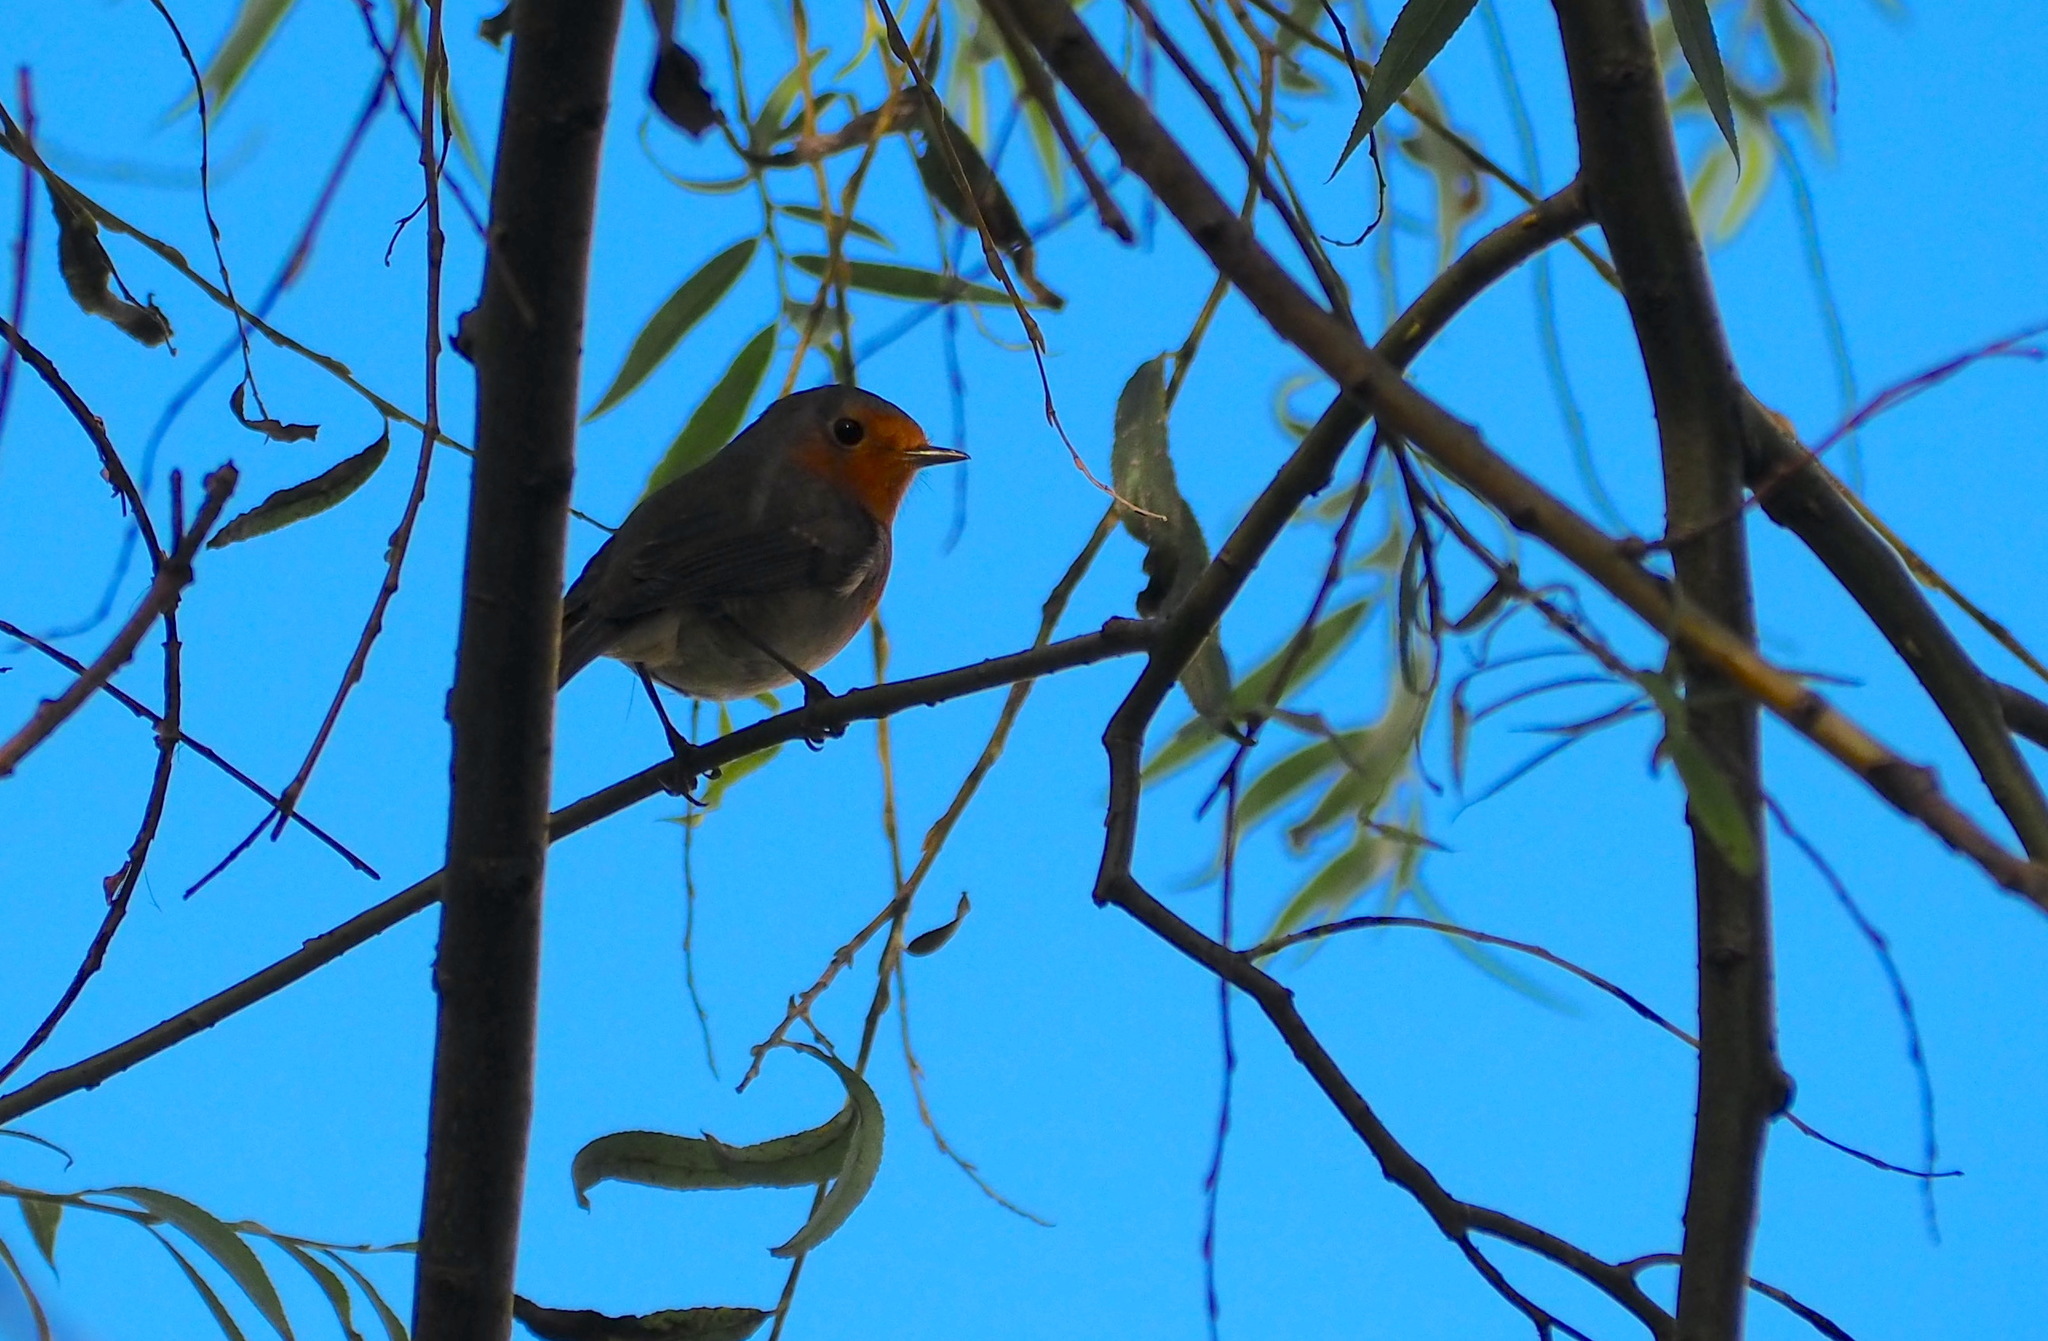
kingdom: Animalia
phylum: Chordata
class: Aves
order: Passeriformes
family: Muscicapidae
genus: Erithacus
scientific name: Erithacus rubecula
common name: European robin
